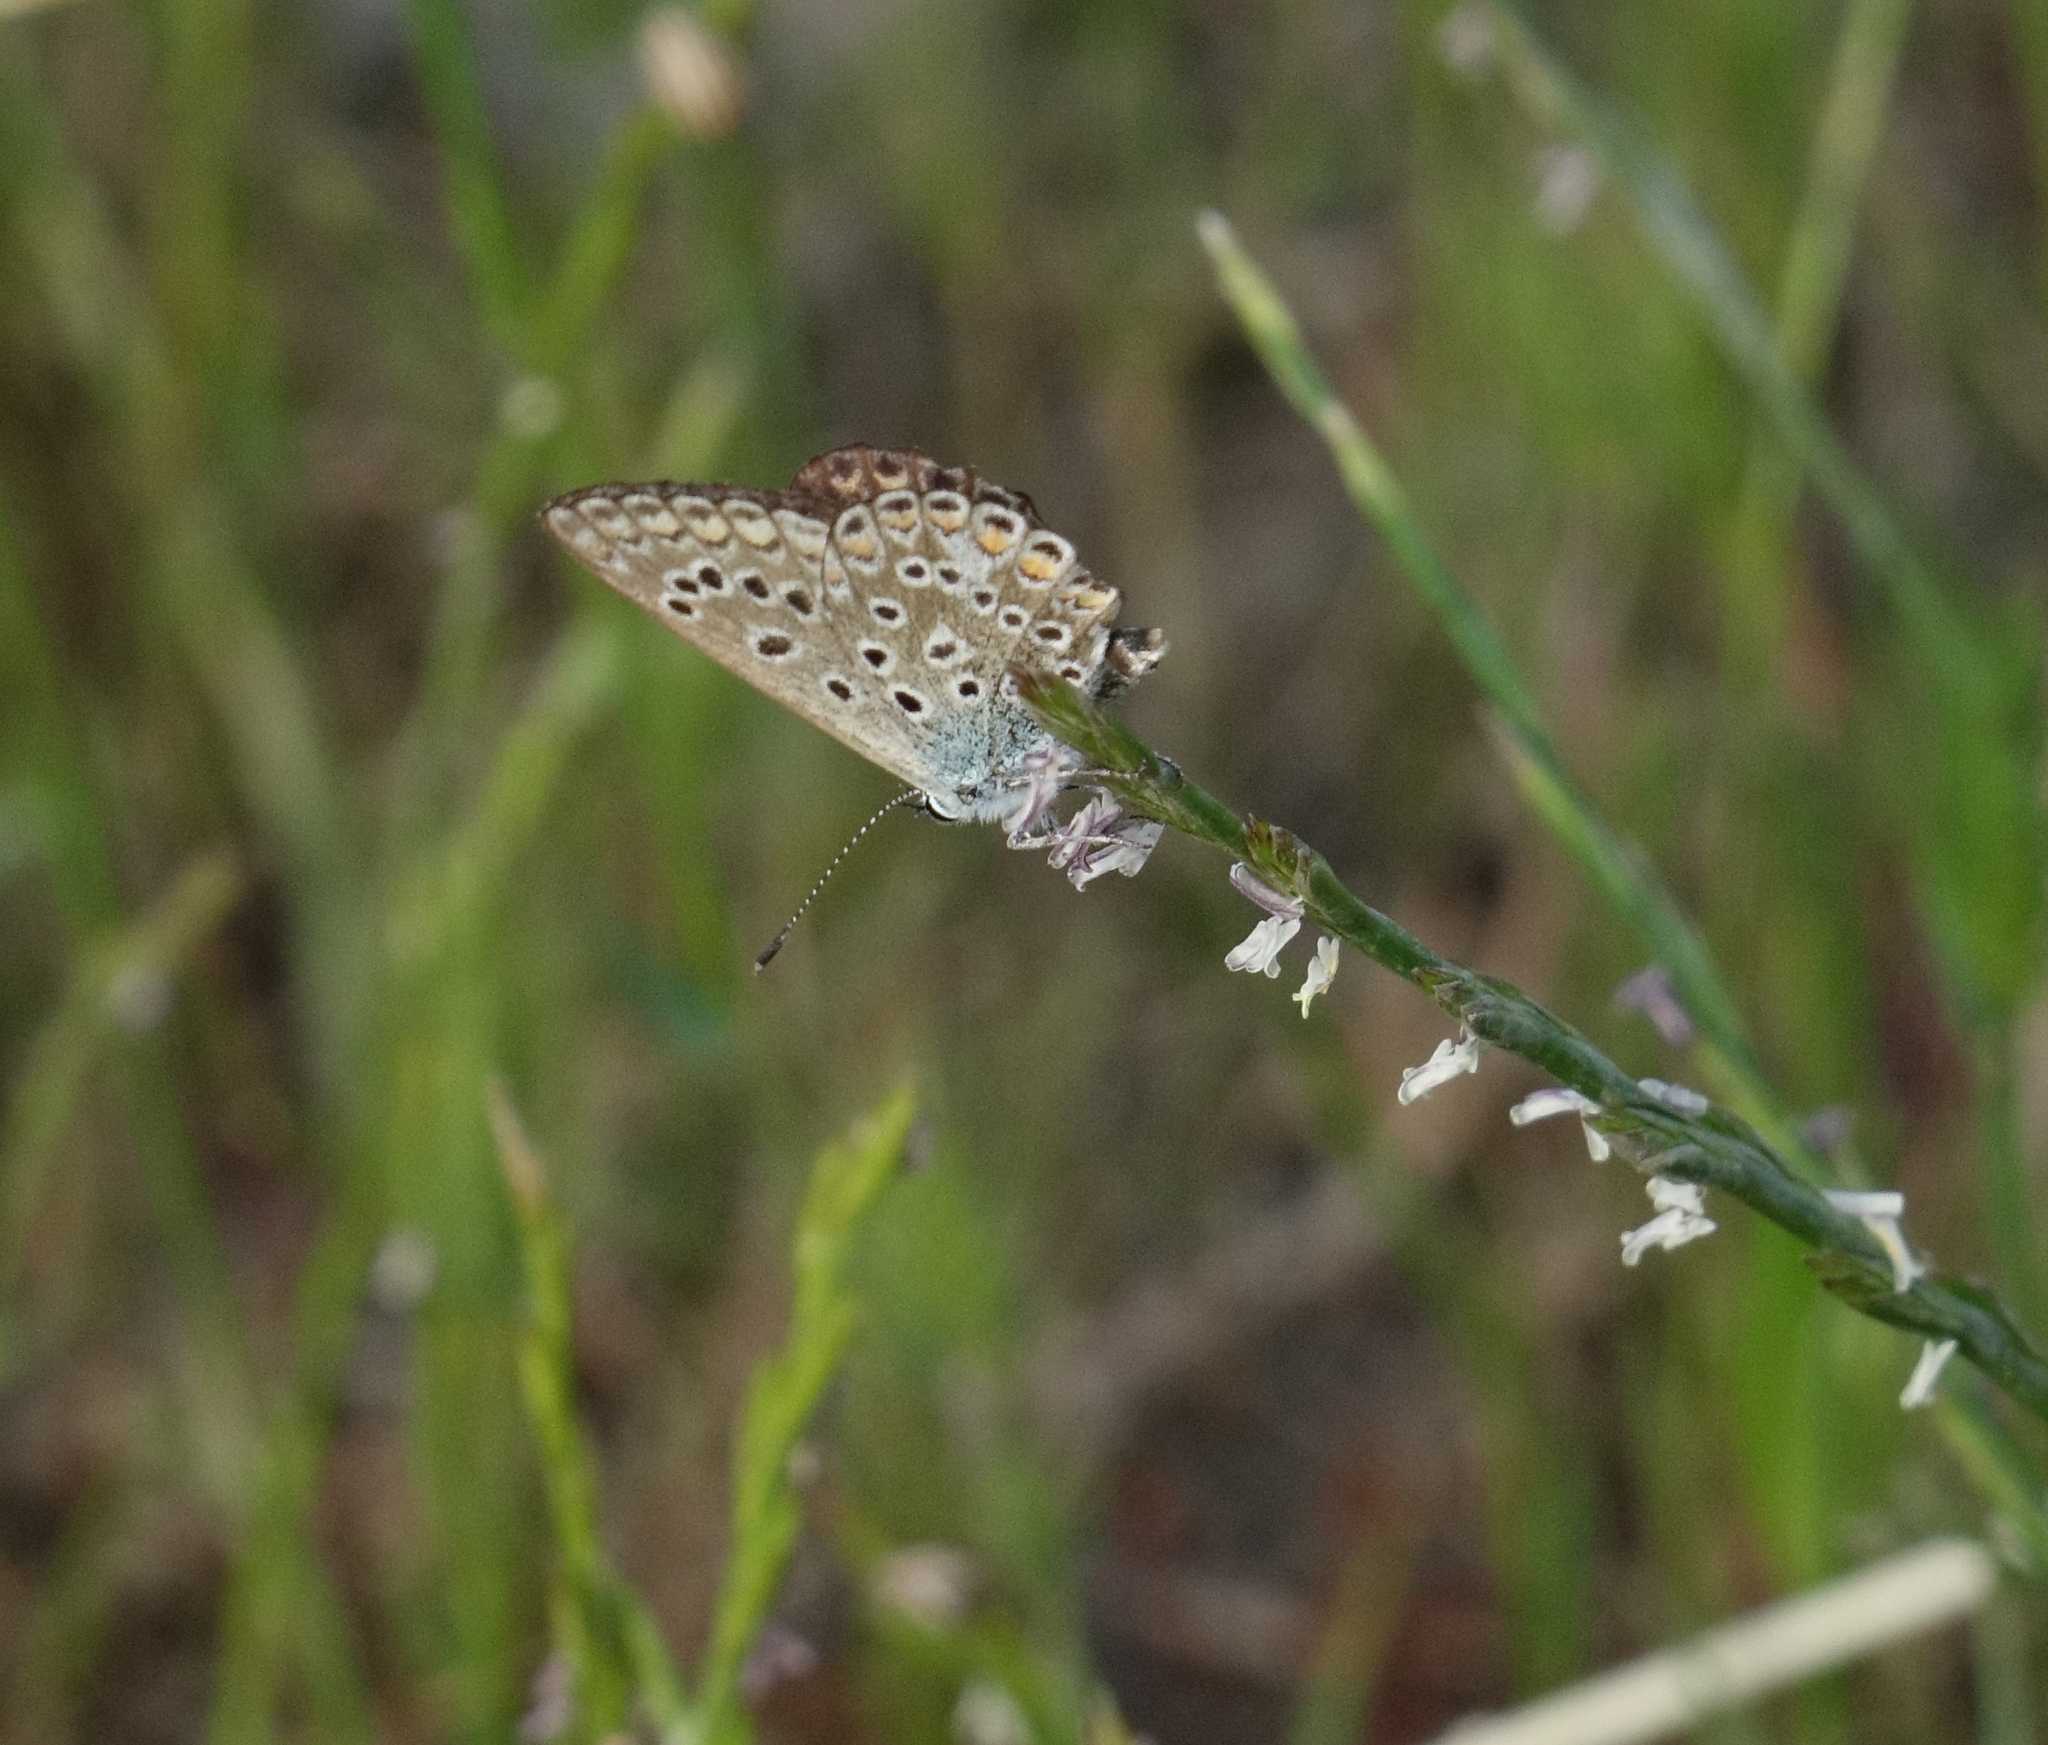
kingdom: Animalia
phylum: Arthropoda
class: Insecta
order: Lepidoptera
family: Lycaenidae
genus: Polyommatus
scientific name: Polyommatus icarus
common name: Common blue
